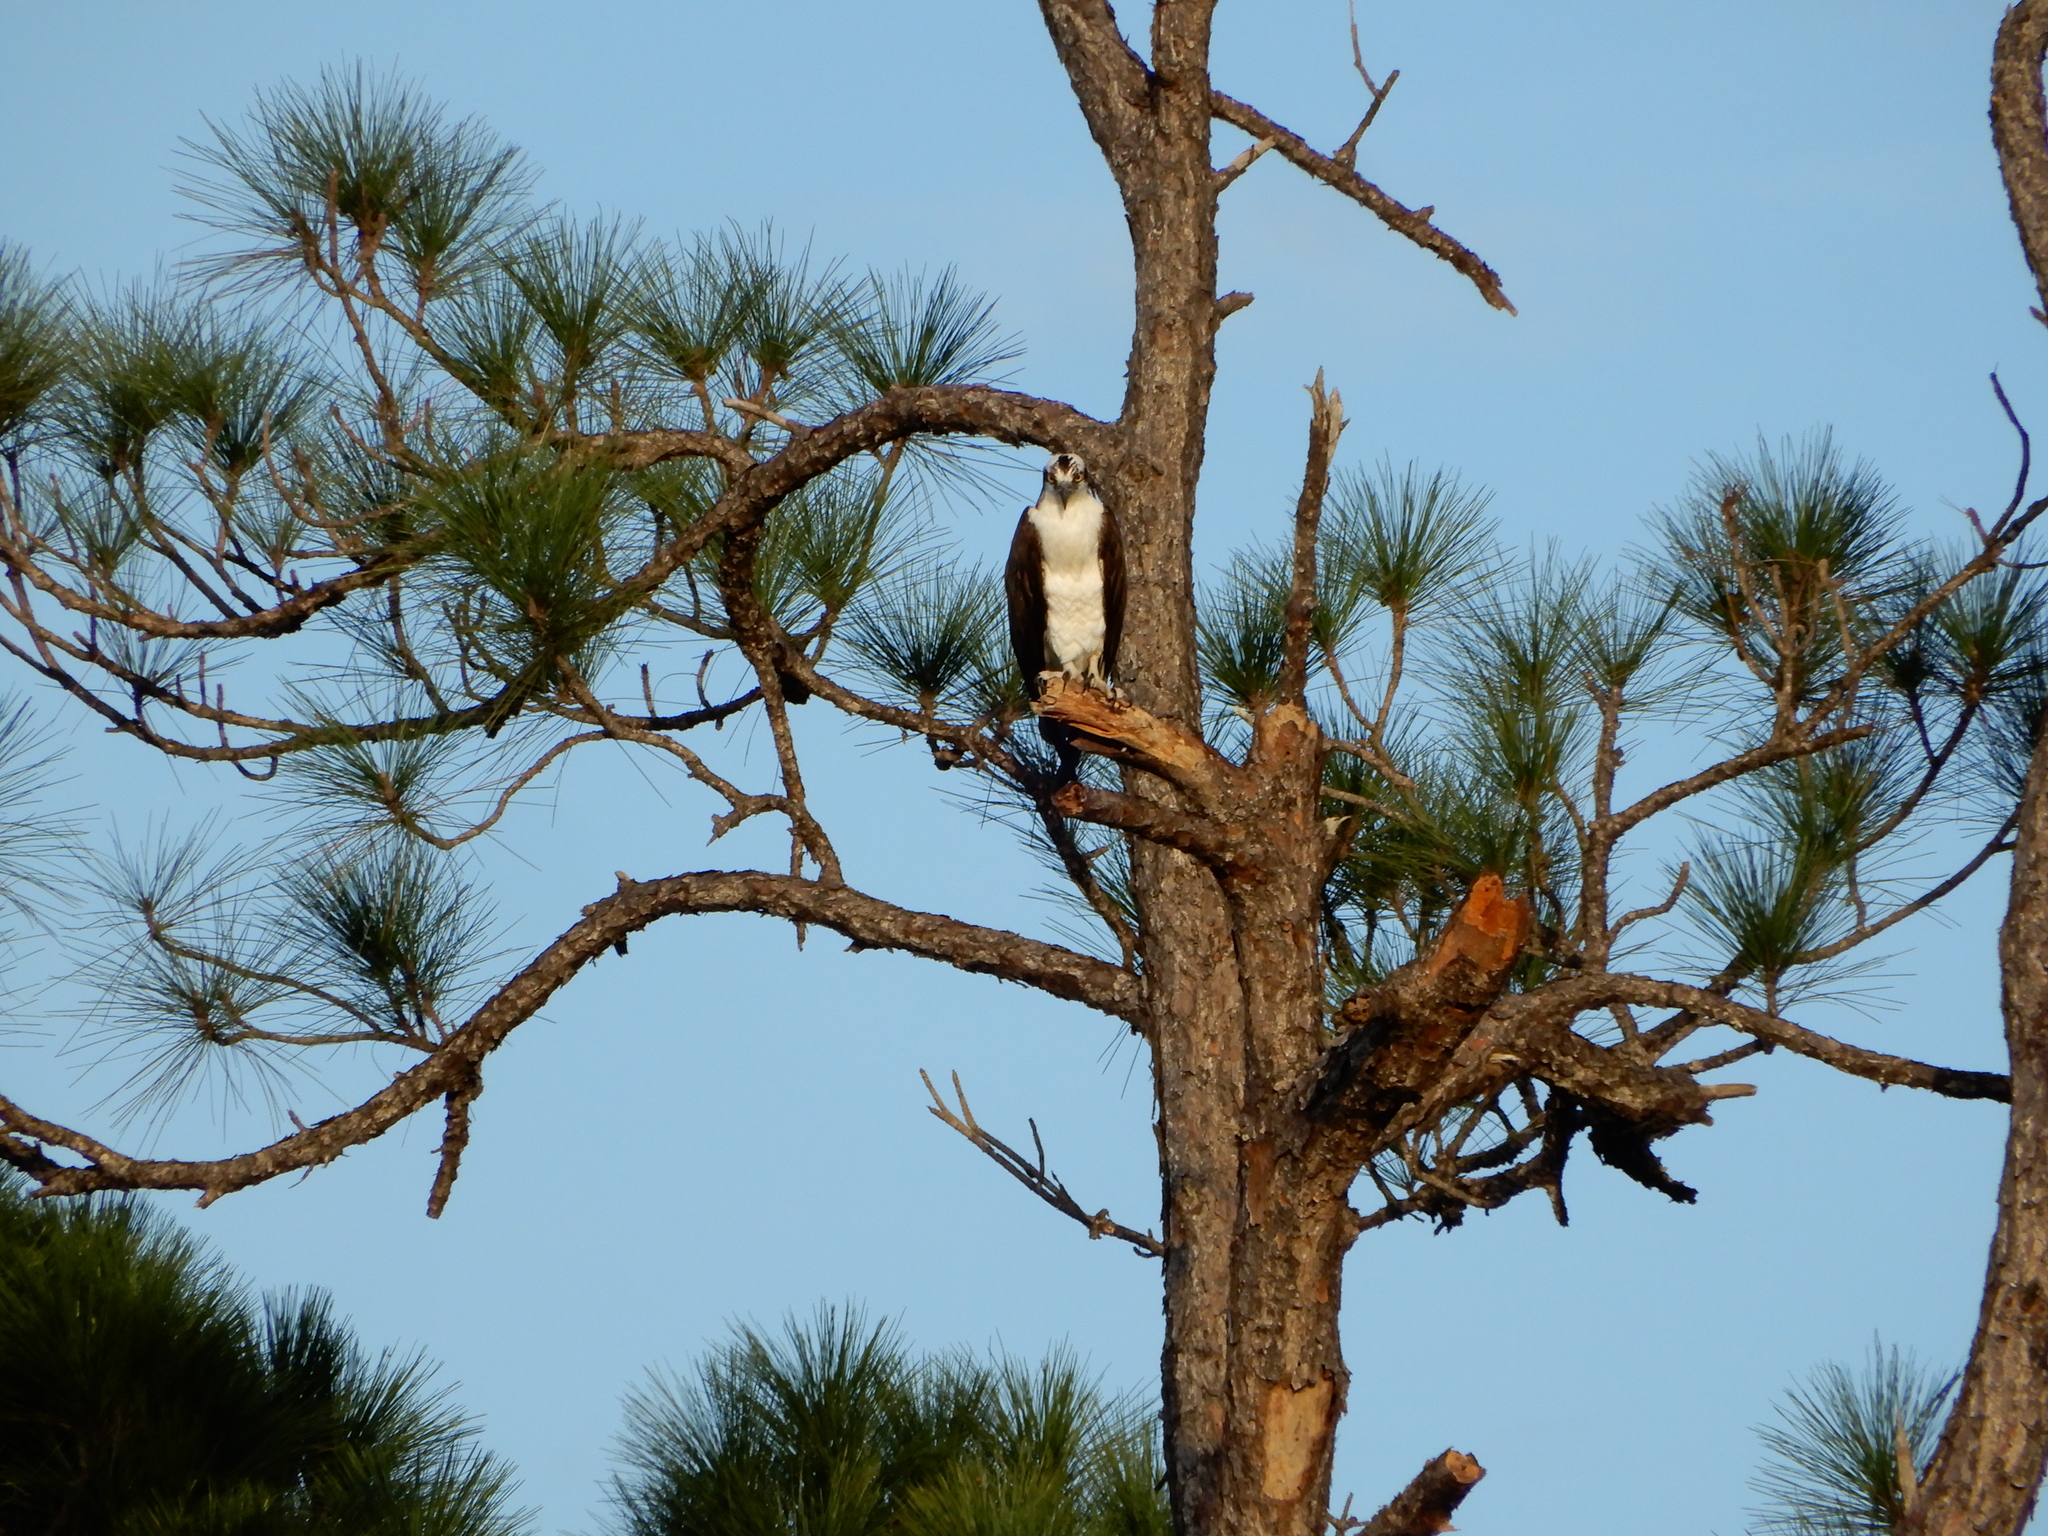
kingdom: Animalia
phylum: Chordata
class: Aves
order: Accipitriformes
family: Pandionidae
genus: Pandion
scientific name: Pandion haliaetus
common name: Osprey
